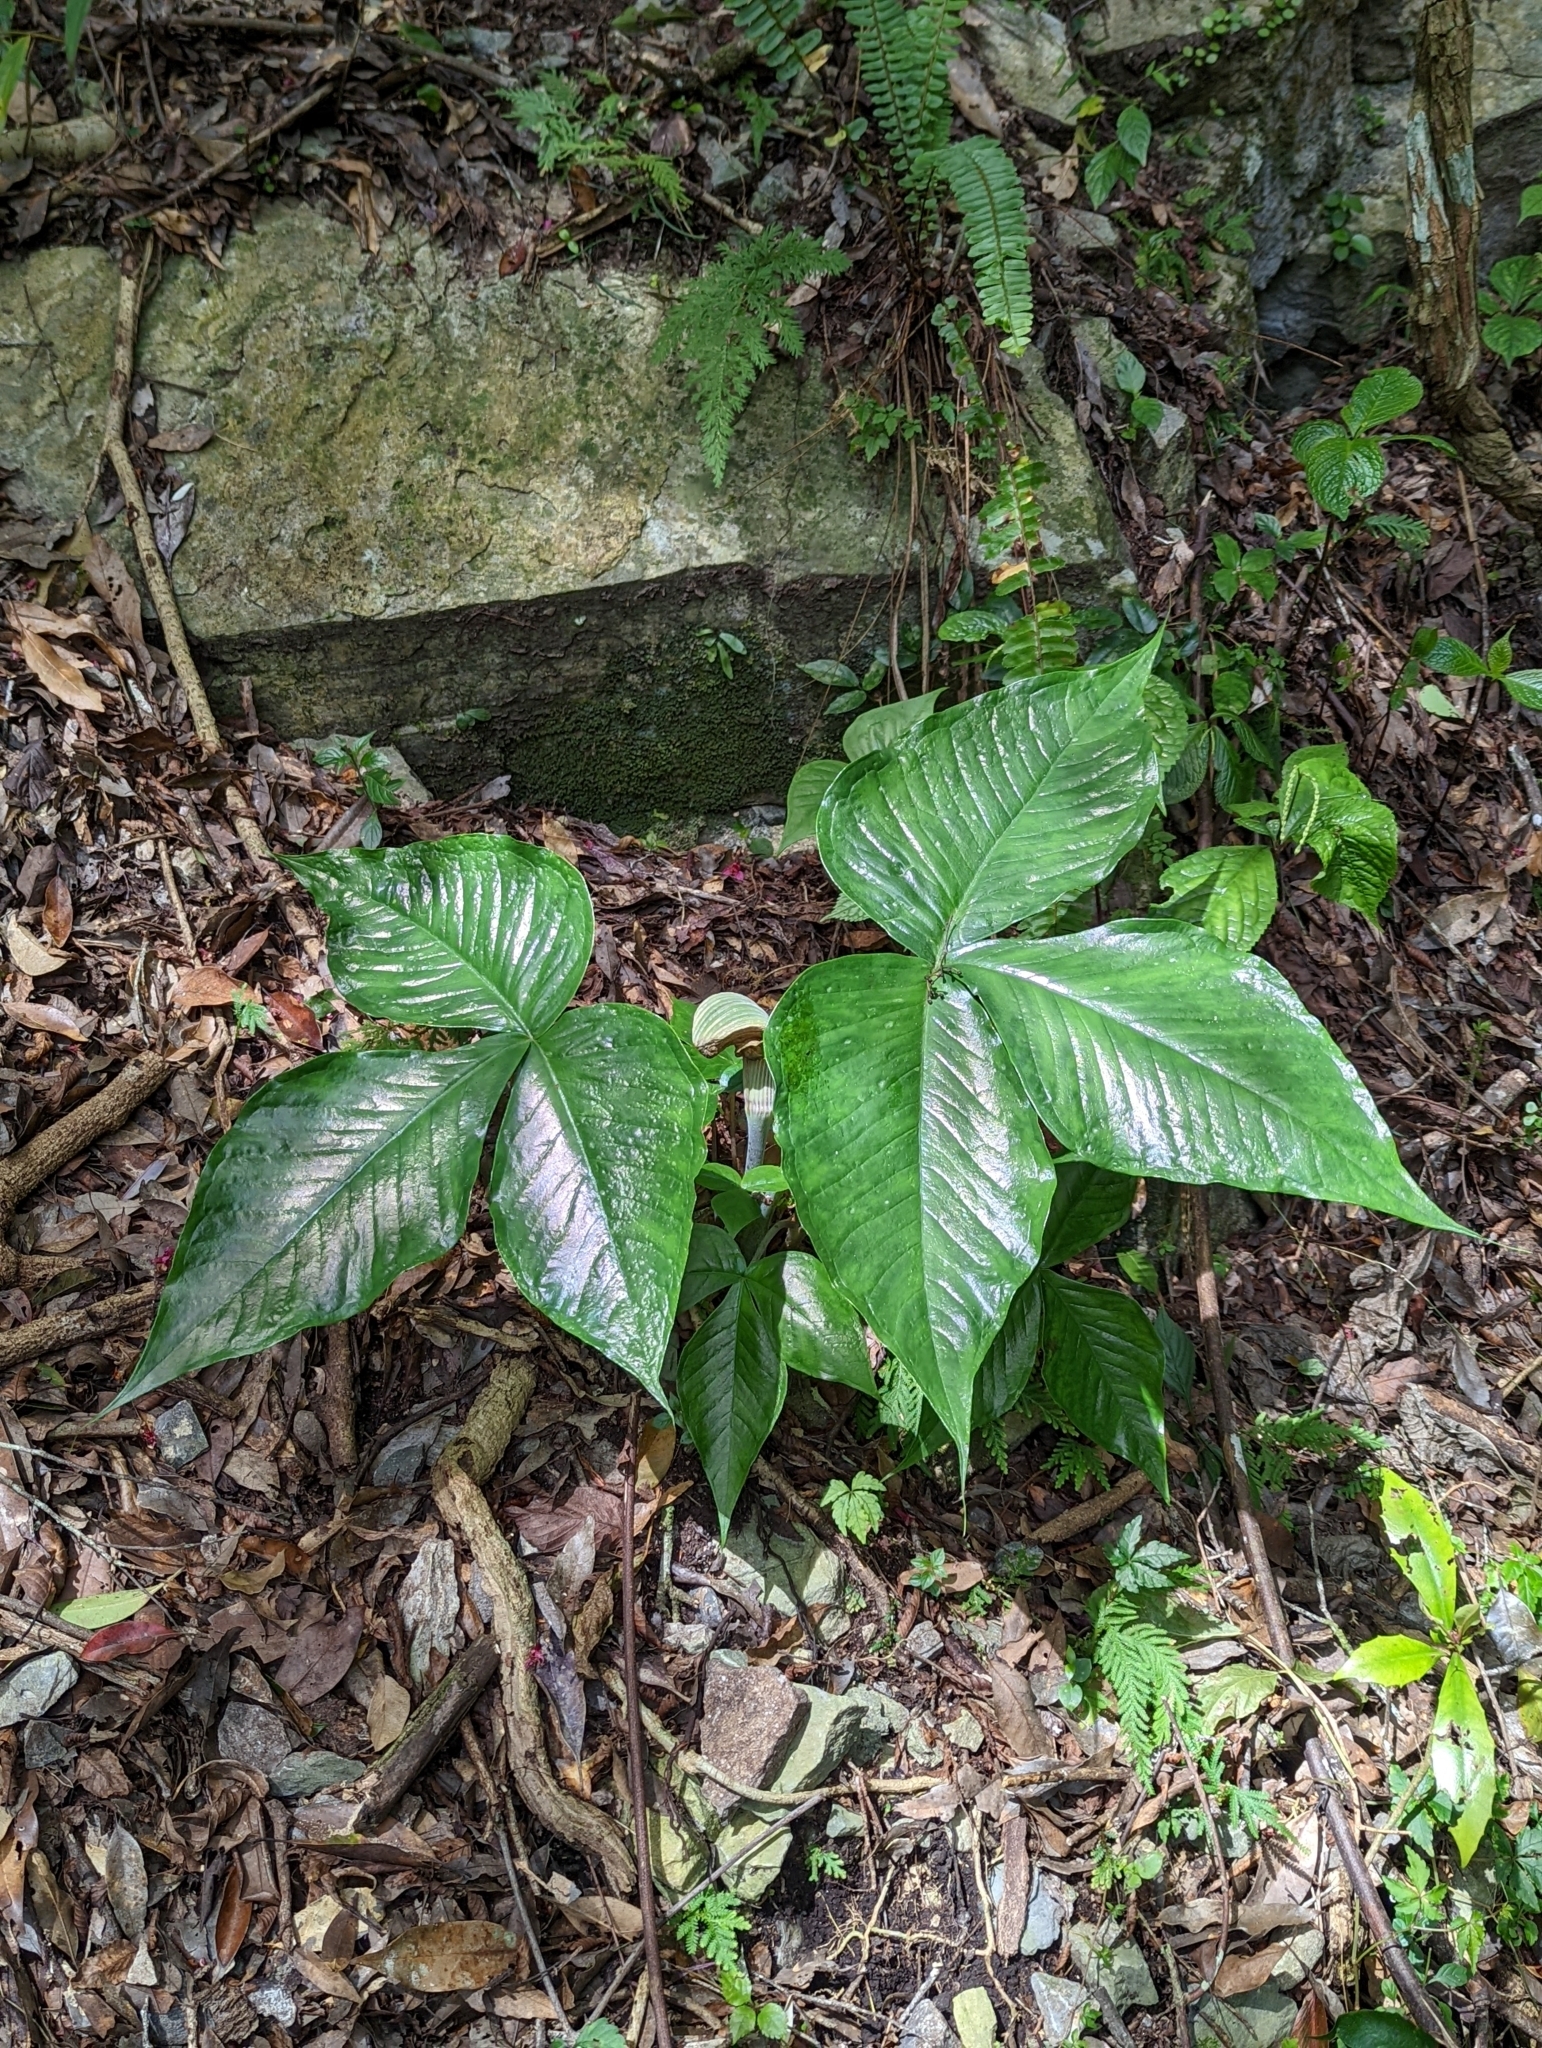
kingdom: Plantae
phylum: Tracheophyta
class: Liliopsida
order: Alismatales
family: Araceae
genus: Arisaema
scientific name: Arisaema ringens
